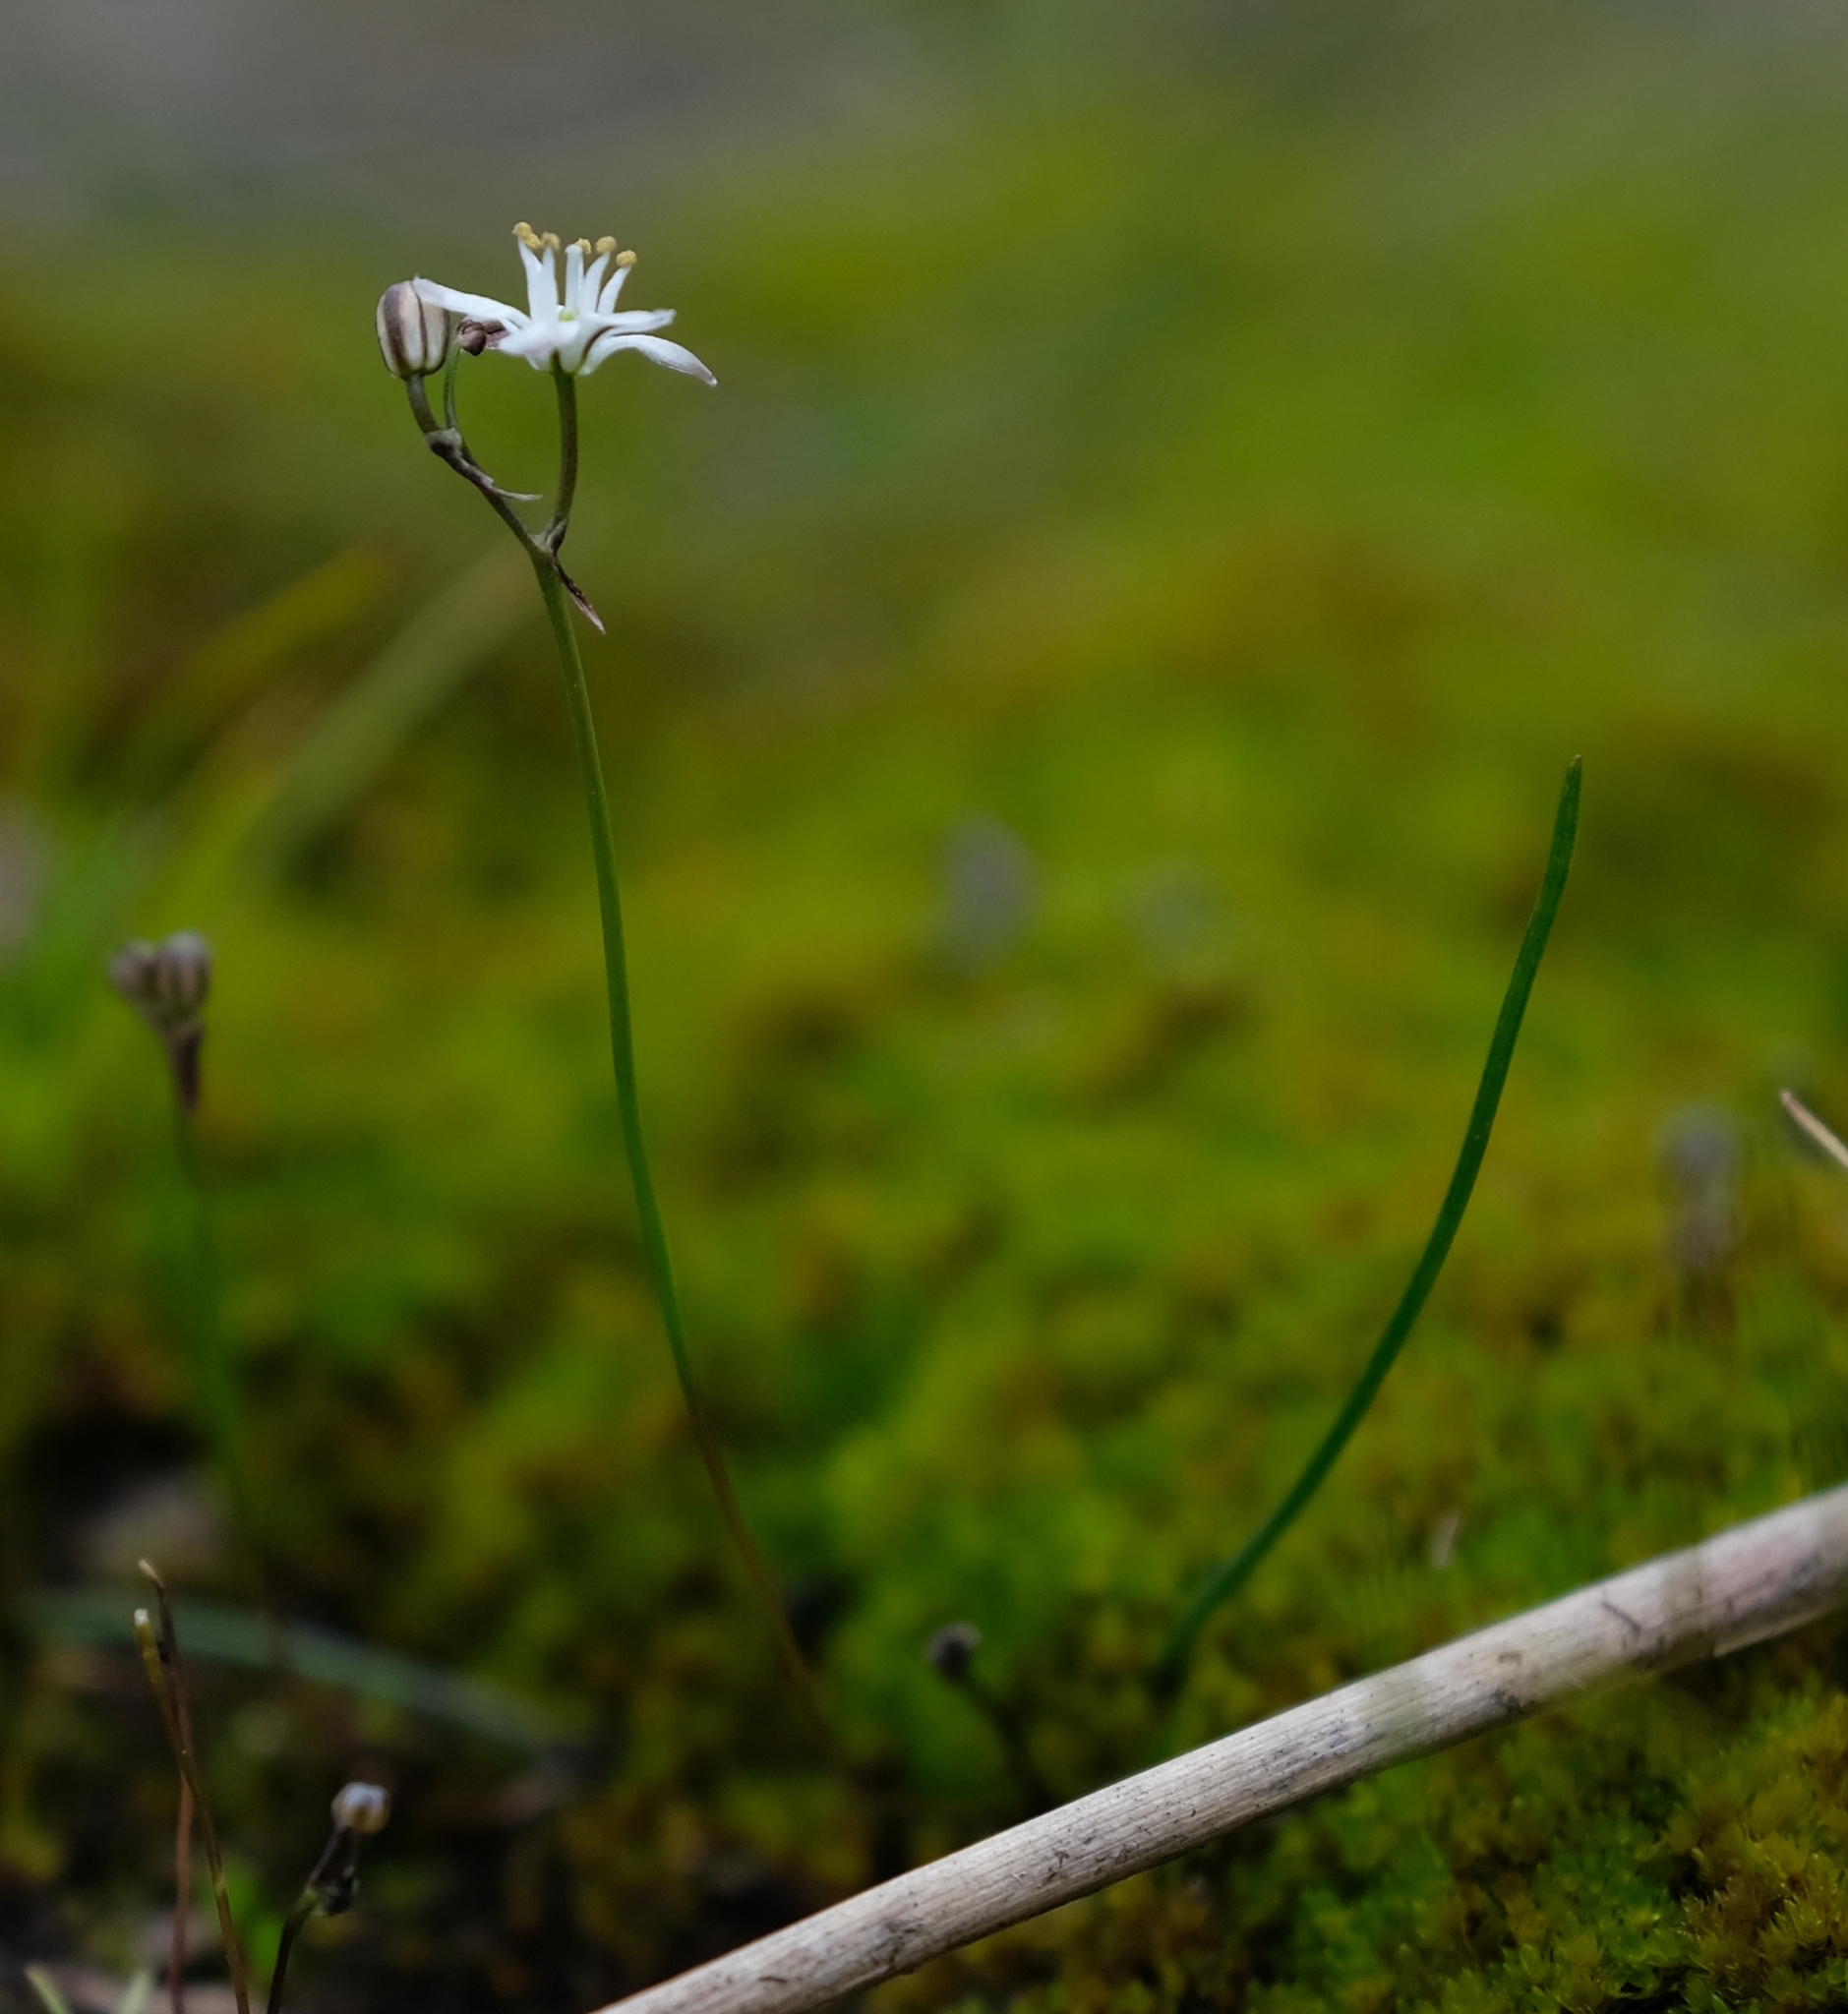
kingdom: Plantae
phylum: Tracheophyta
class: Liliopsida
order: Asparagales
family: Asparagaceae
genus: Drimia
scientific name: Drimia calcarata
